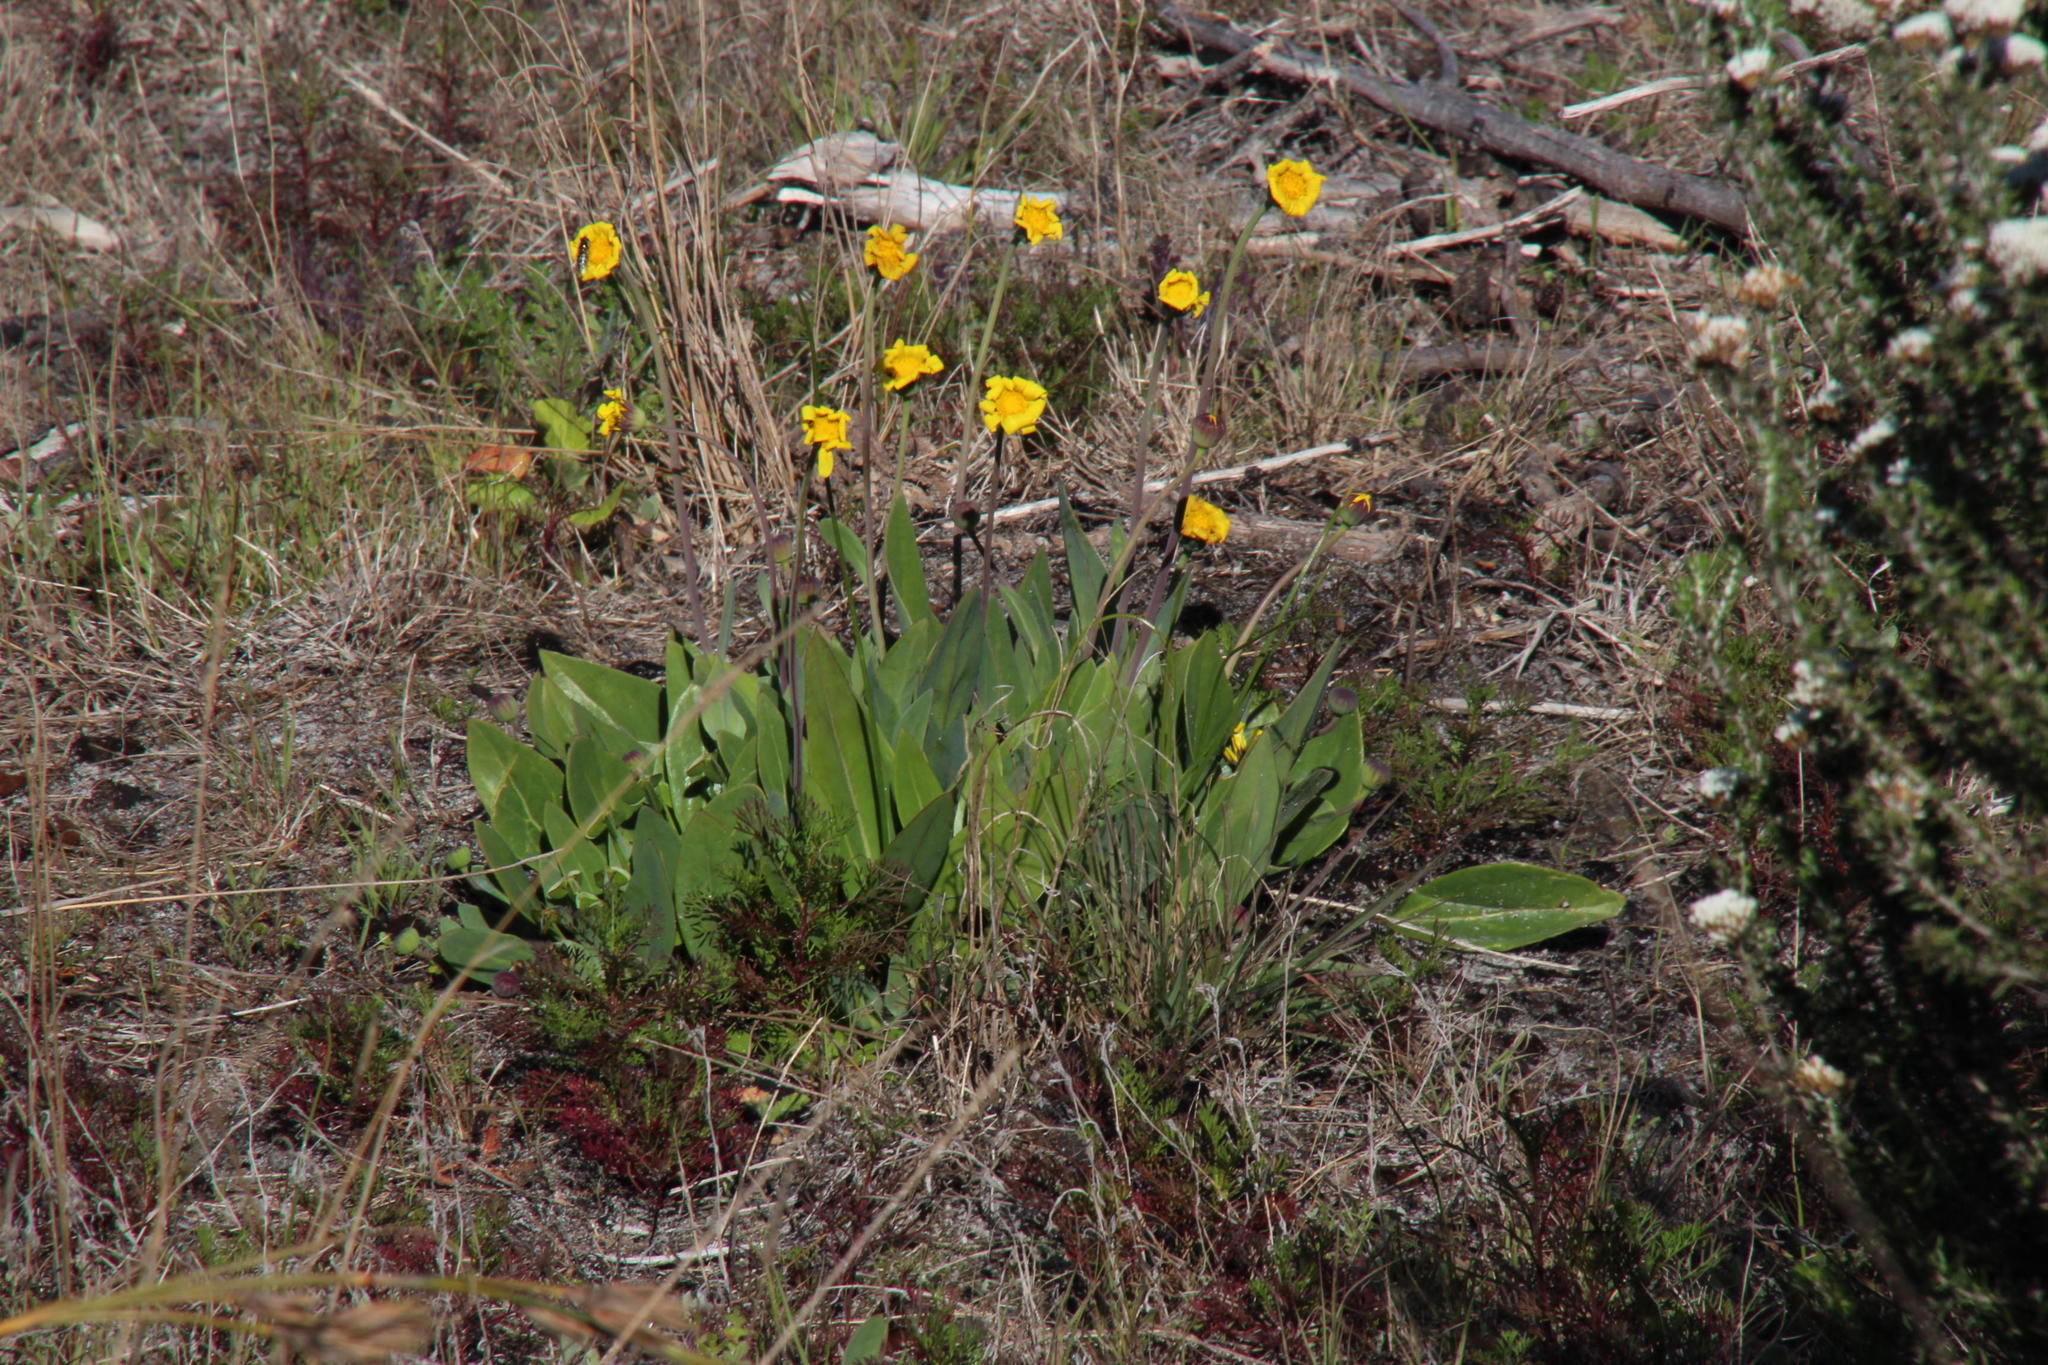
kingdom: Plantae
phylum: Tracheophyta
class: Magnoliopsida
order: Asterales
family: Asteraceae
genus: Othonna
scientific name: Othonna bulbosa
